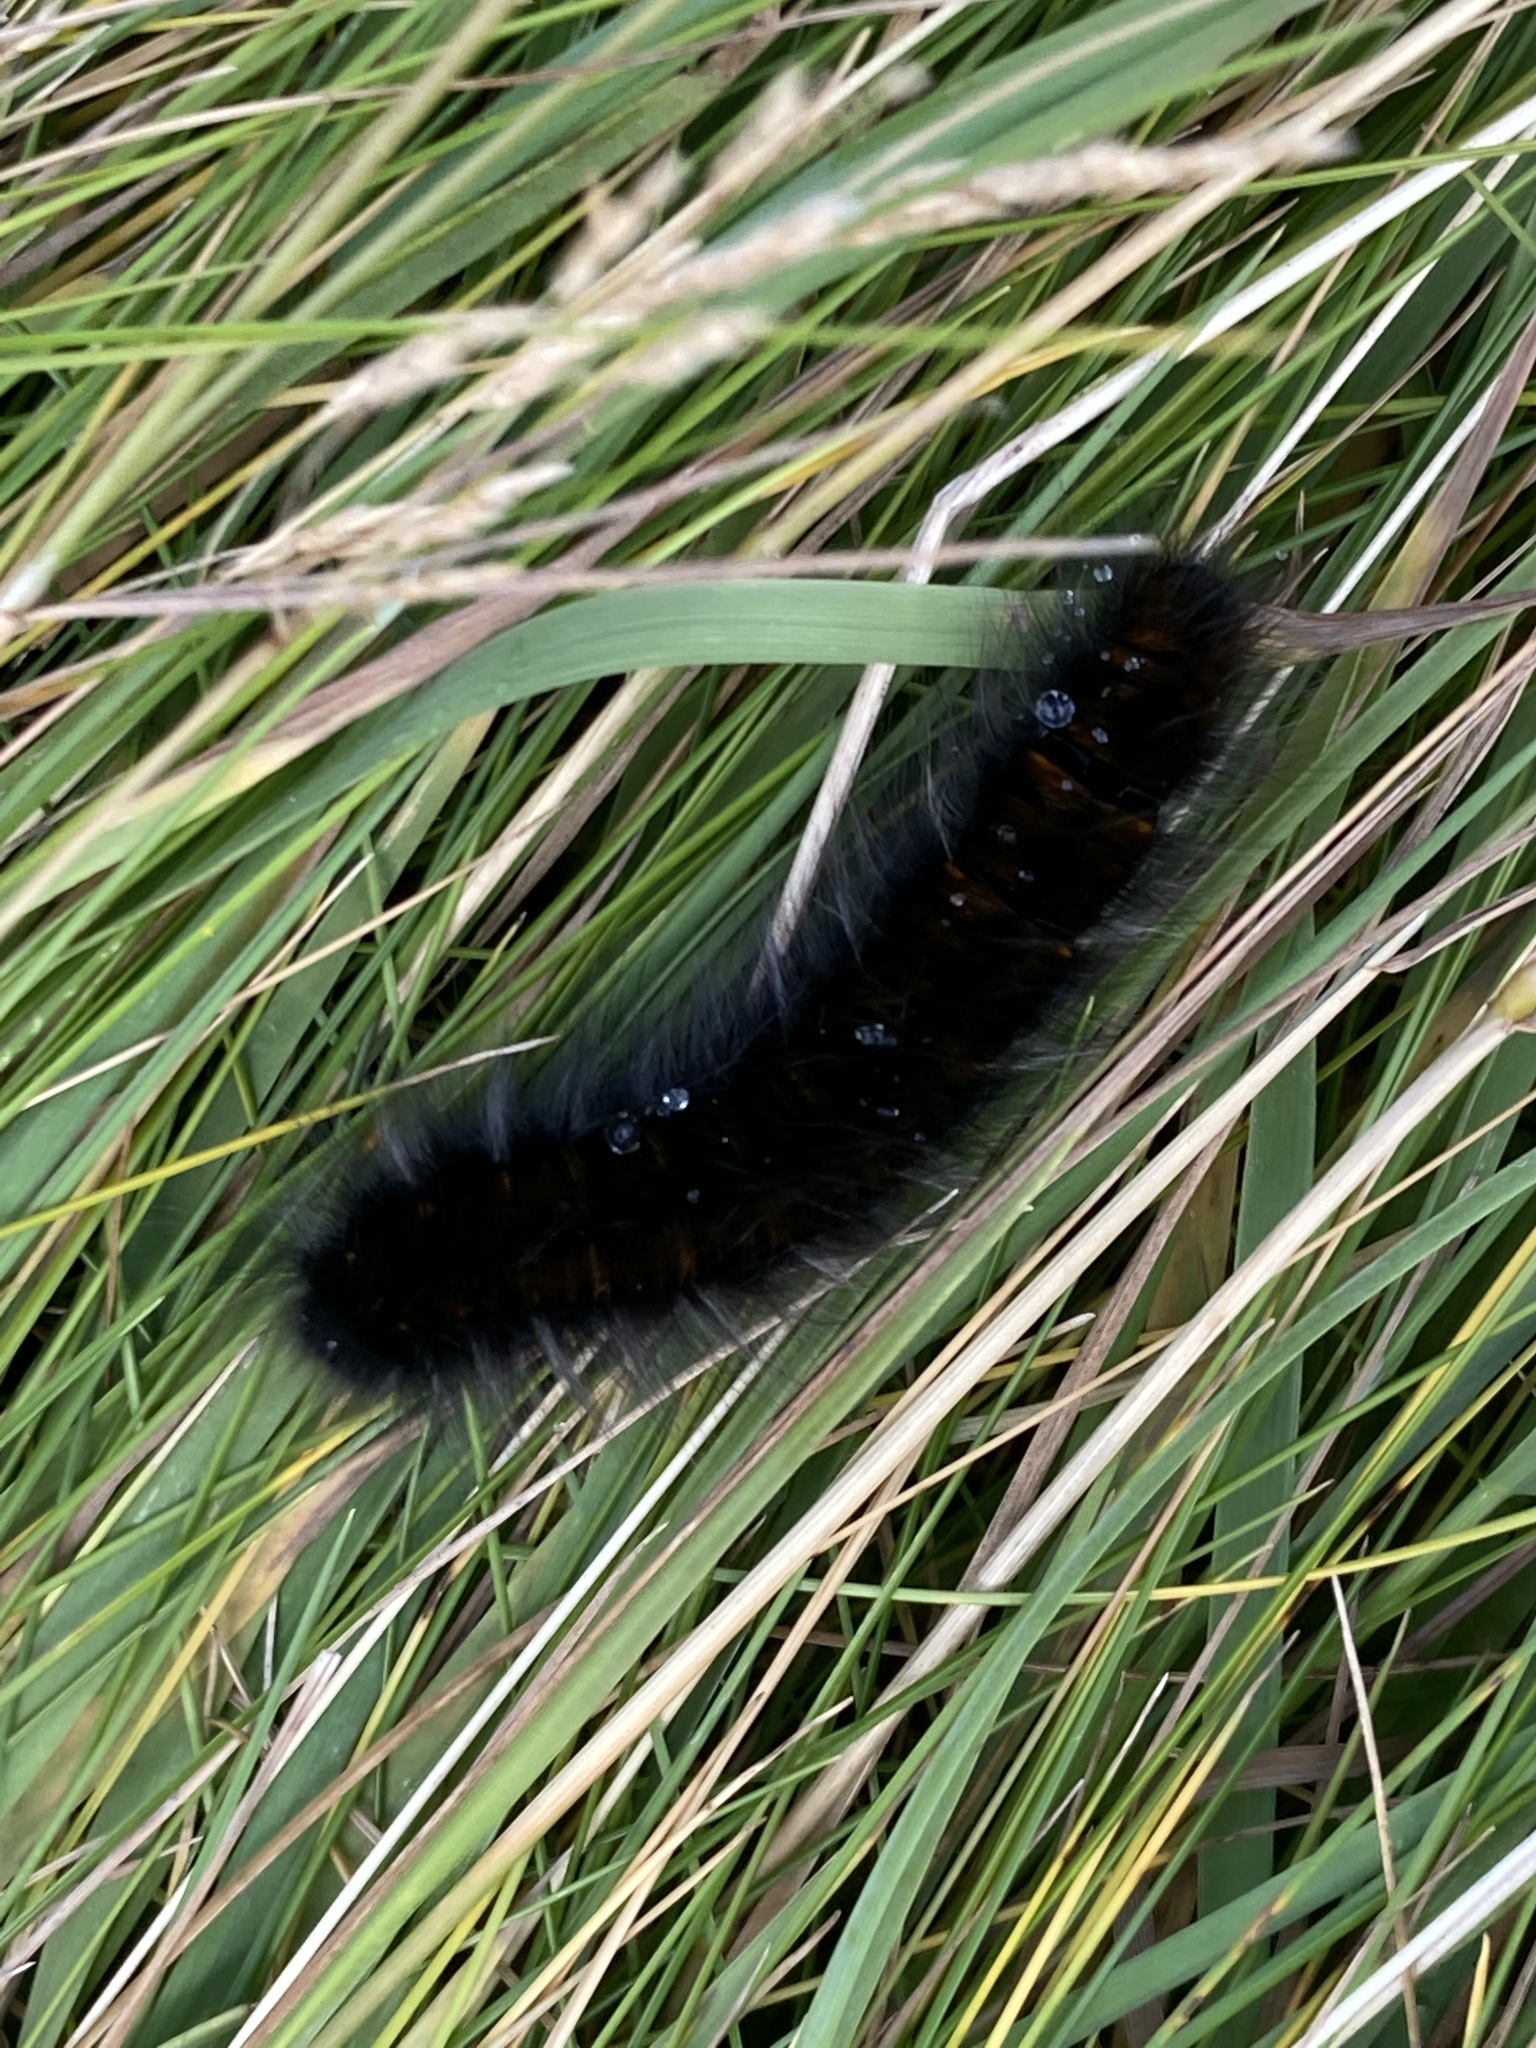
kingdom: Animalia
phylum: Arthropoda
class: Insecta
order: Lepidoptera
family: Lasiocampidae
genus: Macrothylacia
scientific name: Macrothylacia rubi
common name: Fox moth
